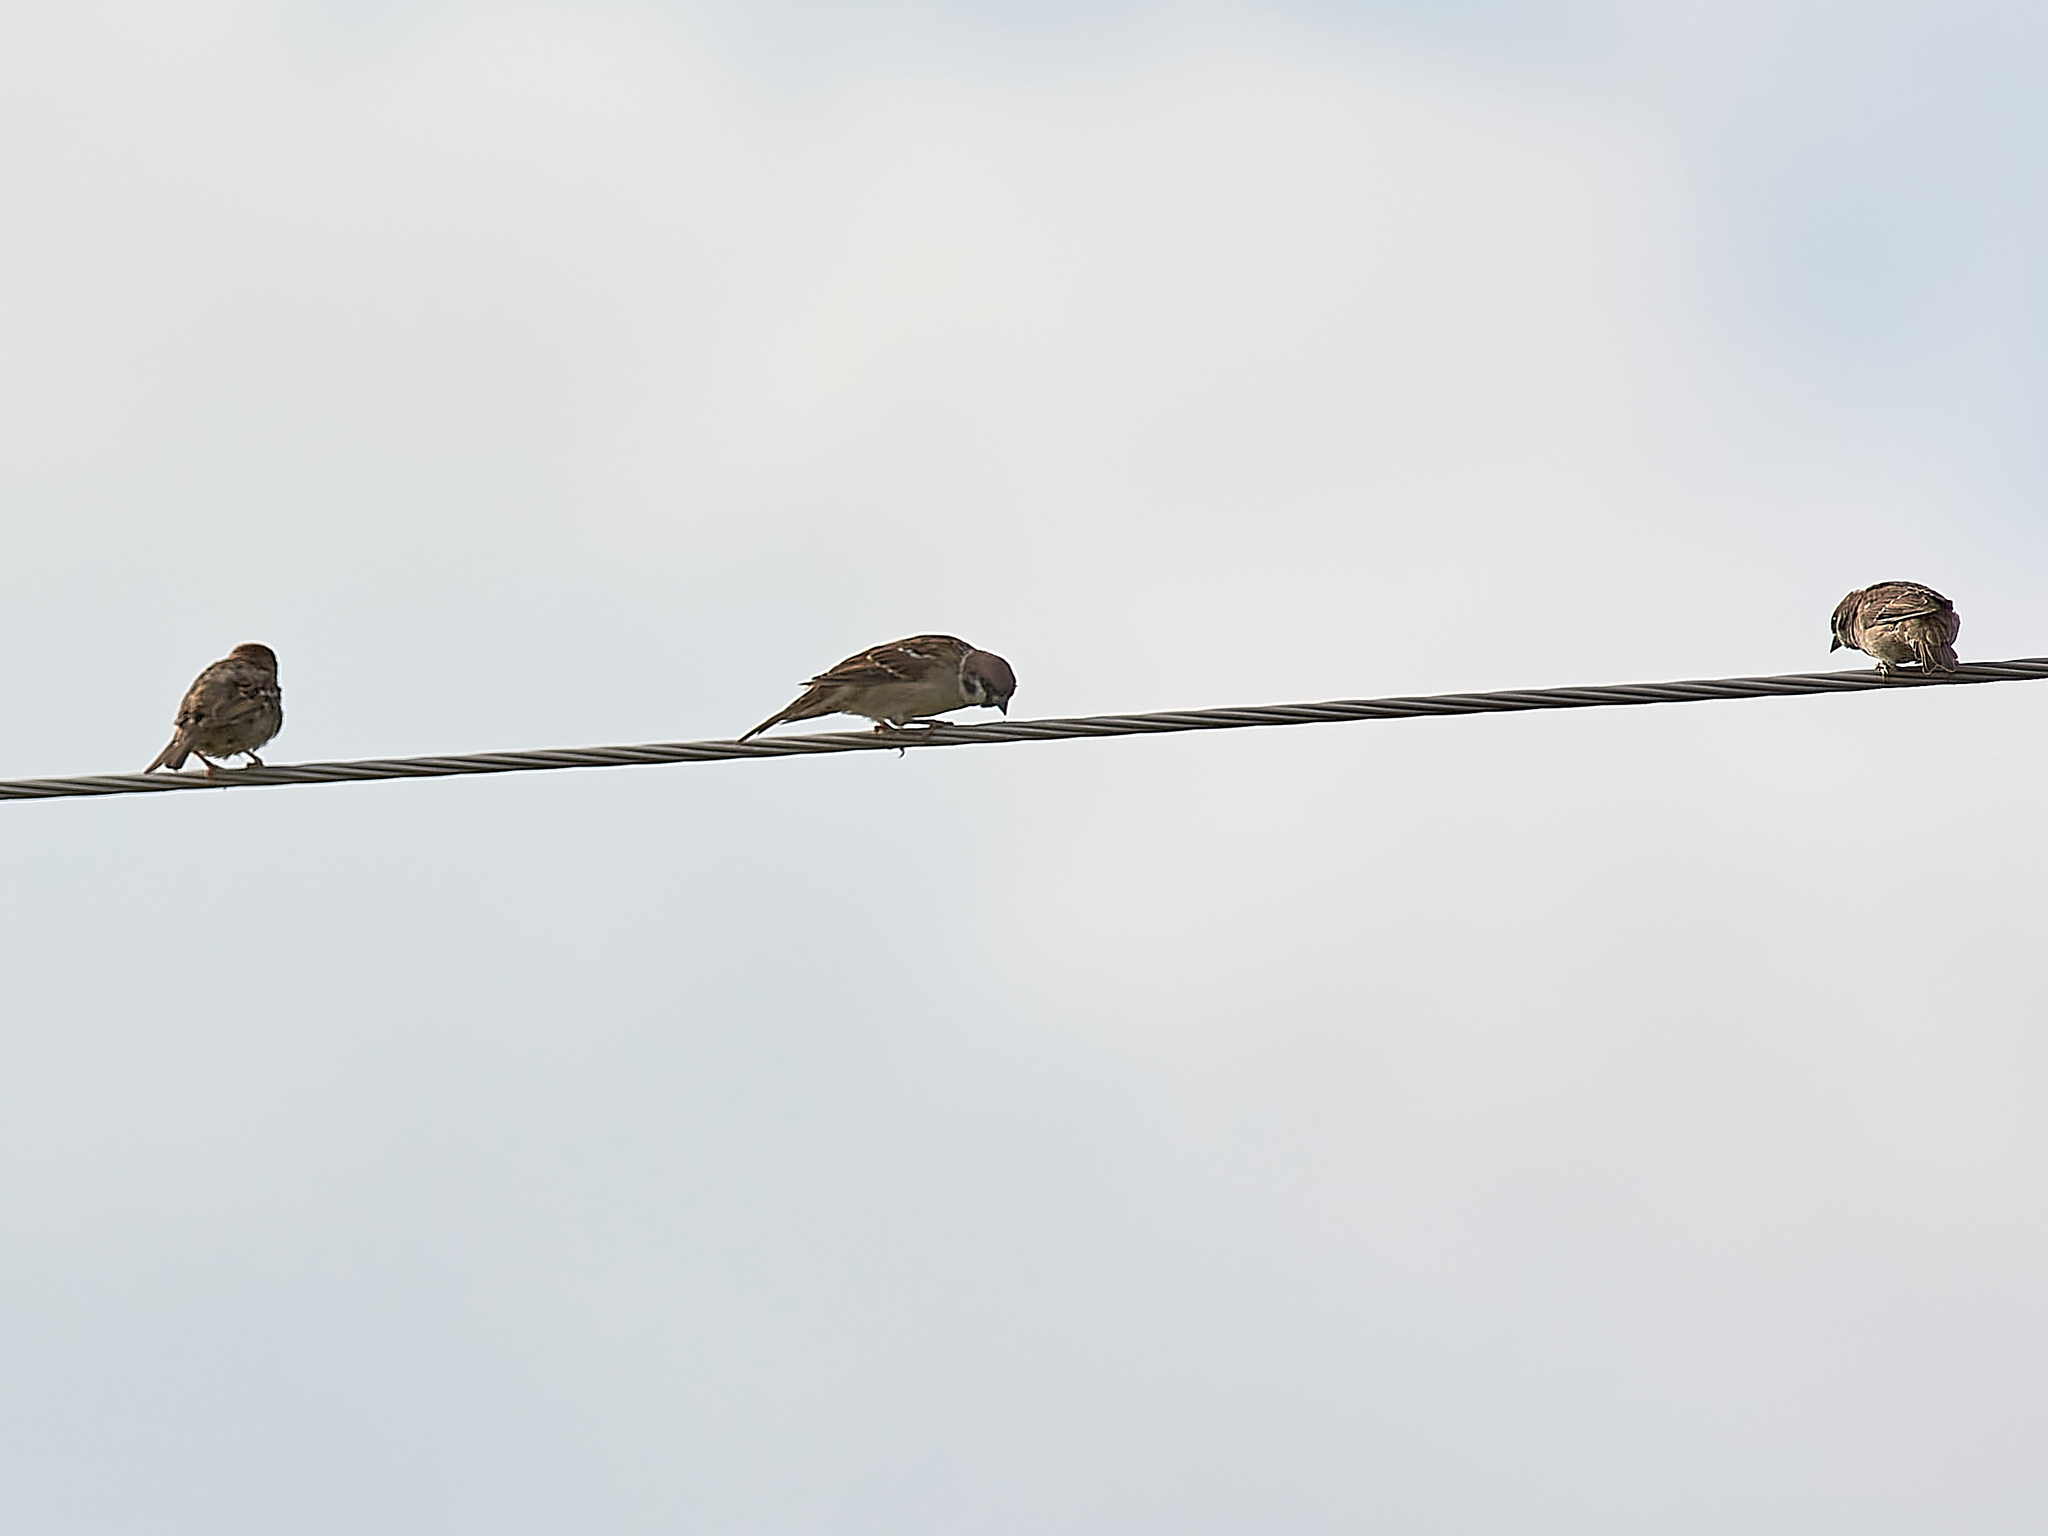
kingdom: Animalia
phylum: Chordata
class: Aves
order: Passeriformes
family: Passeridae
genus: Passer
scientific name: Passer montanus
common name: Eurasian tree sparrow
